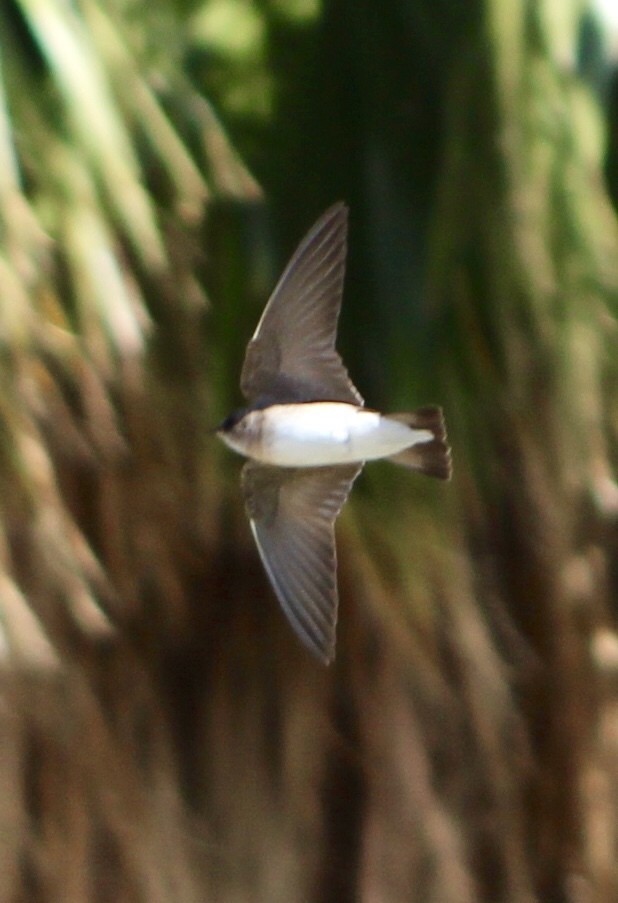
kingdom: Animalia
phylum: Chordata
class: Aves
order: Passeriformes
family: Hirundinidae
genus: Stelgidopteryx
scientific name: Stelgidopteryx serripennis
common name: Northern rough-winged swallow
